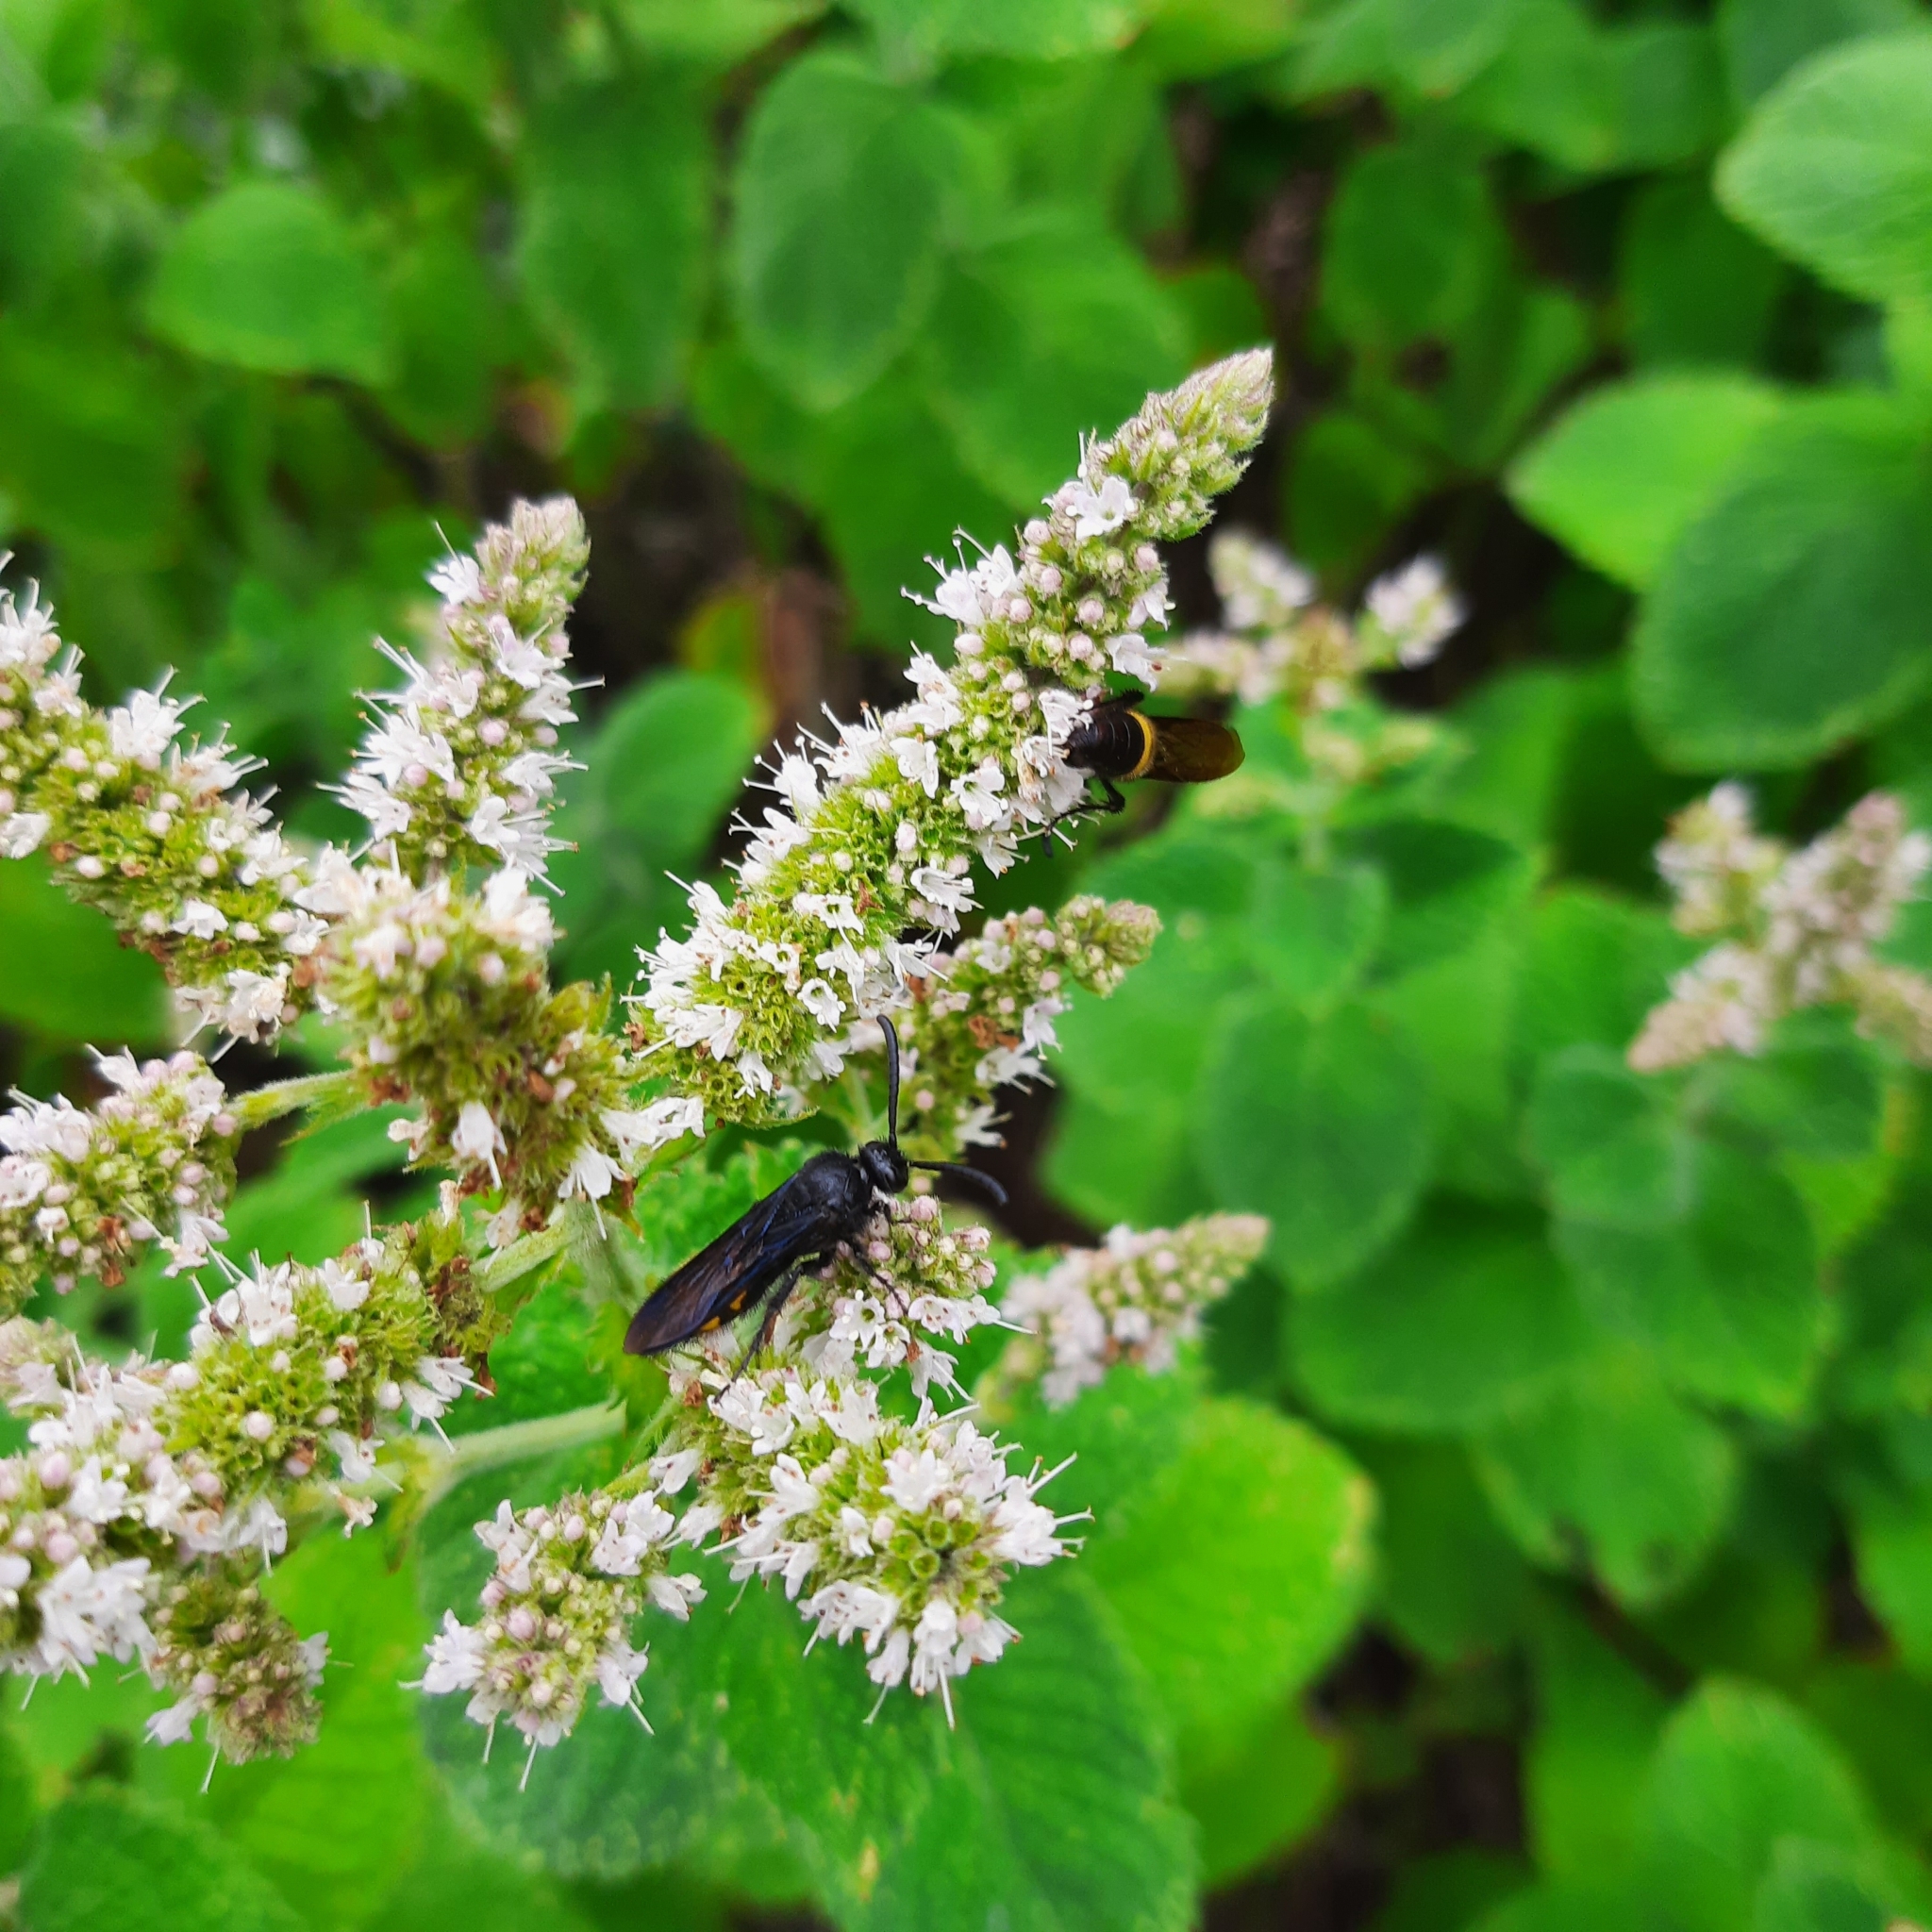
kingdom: Animalia
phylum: Arthropoda
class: Insecta
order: Hymenoptera
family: Scoliidae
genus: Scolia
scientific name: Scolia hirta
